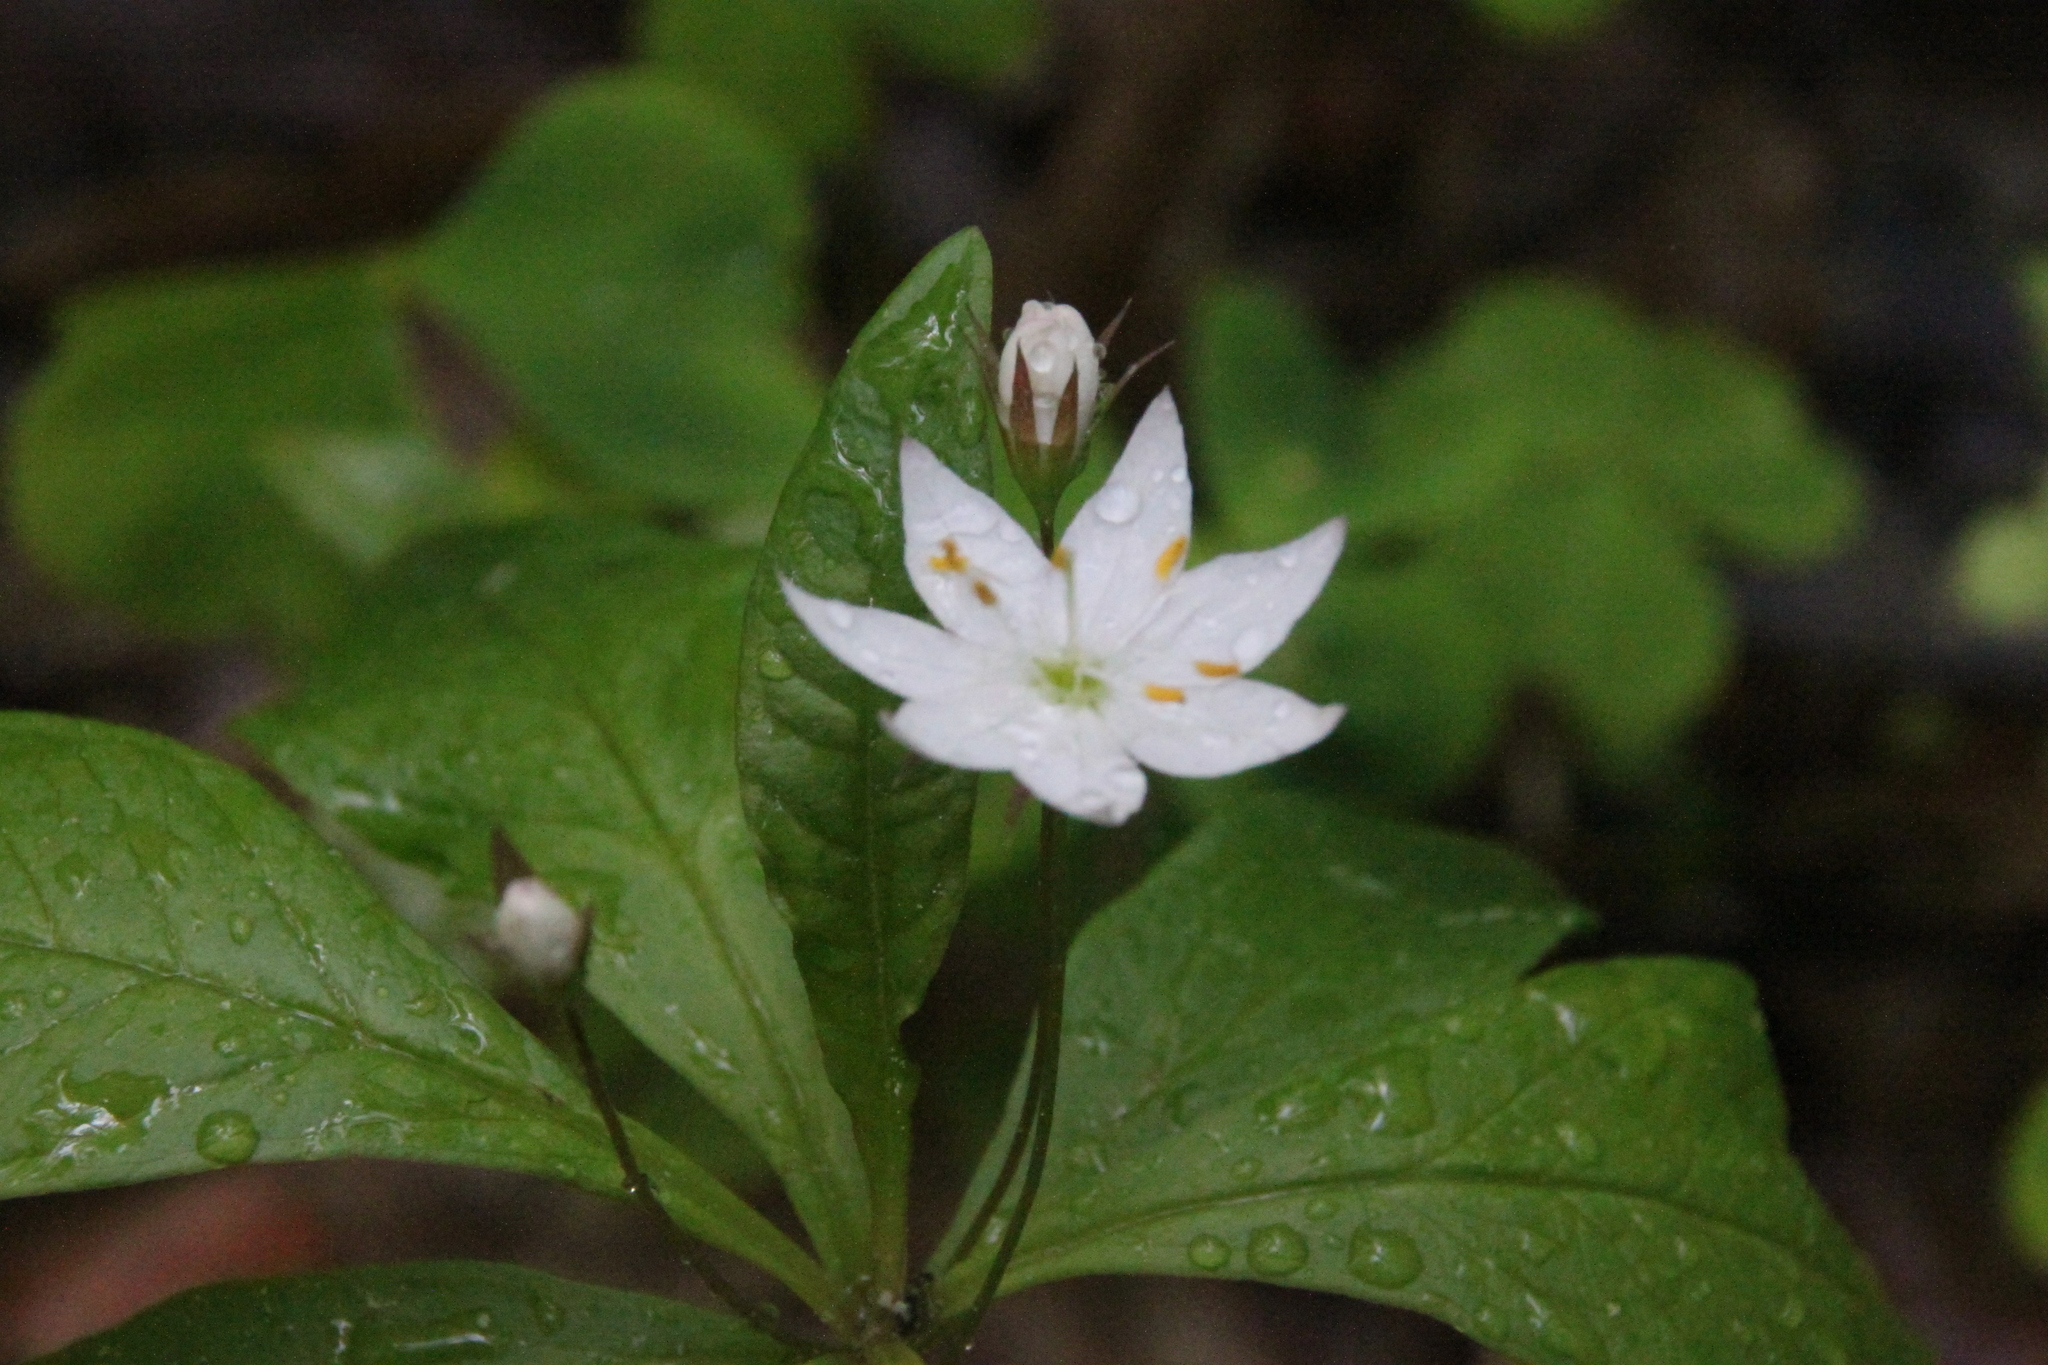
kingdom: Plantae
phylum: Tracheophyta
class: Magnoliopsida
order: Ericales
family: Primulaceae
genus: Lysimachia
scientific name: Lysimachia europaea
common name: Arctic starflower
